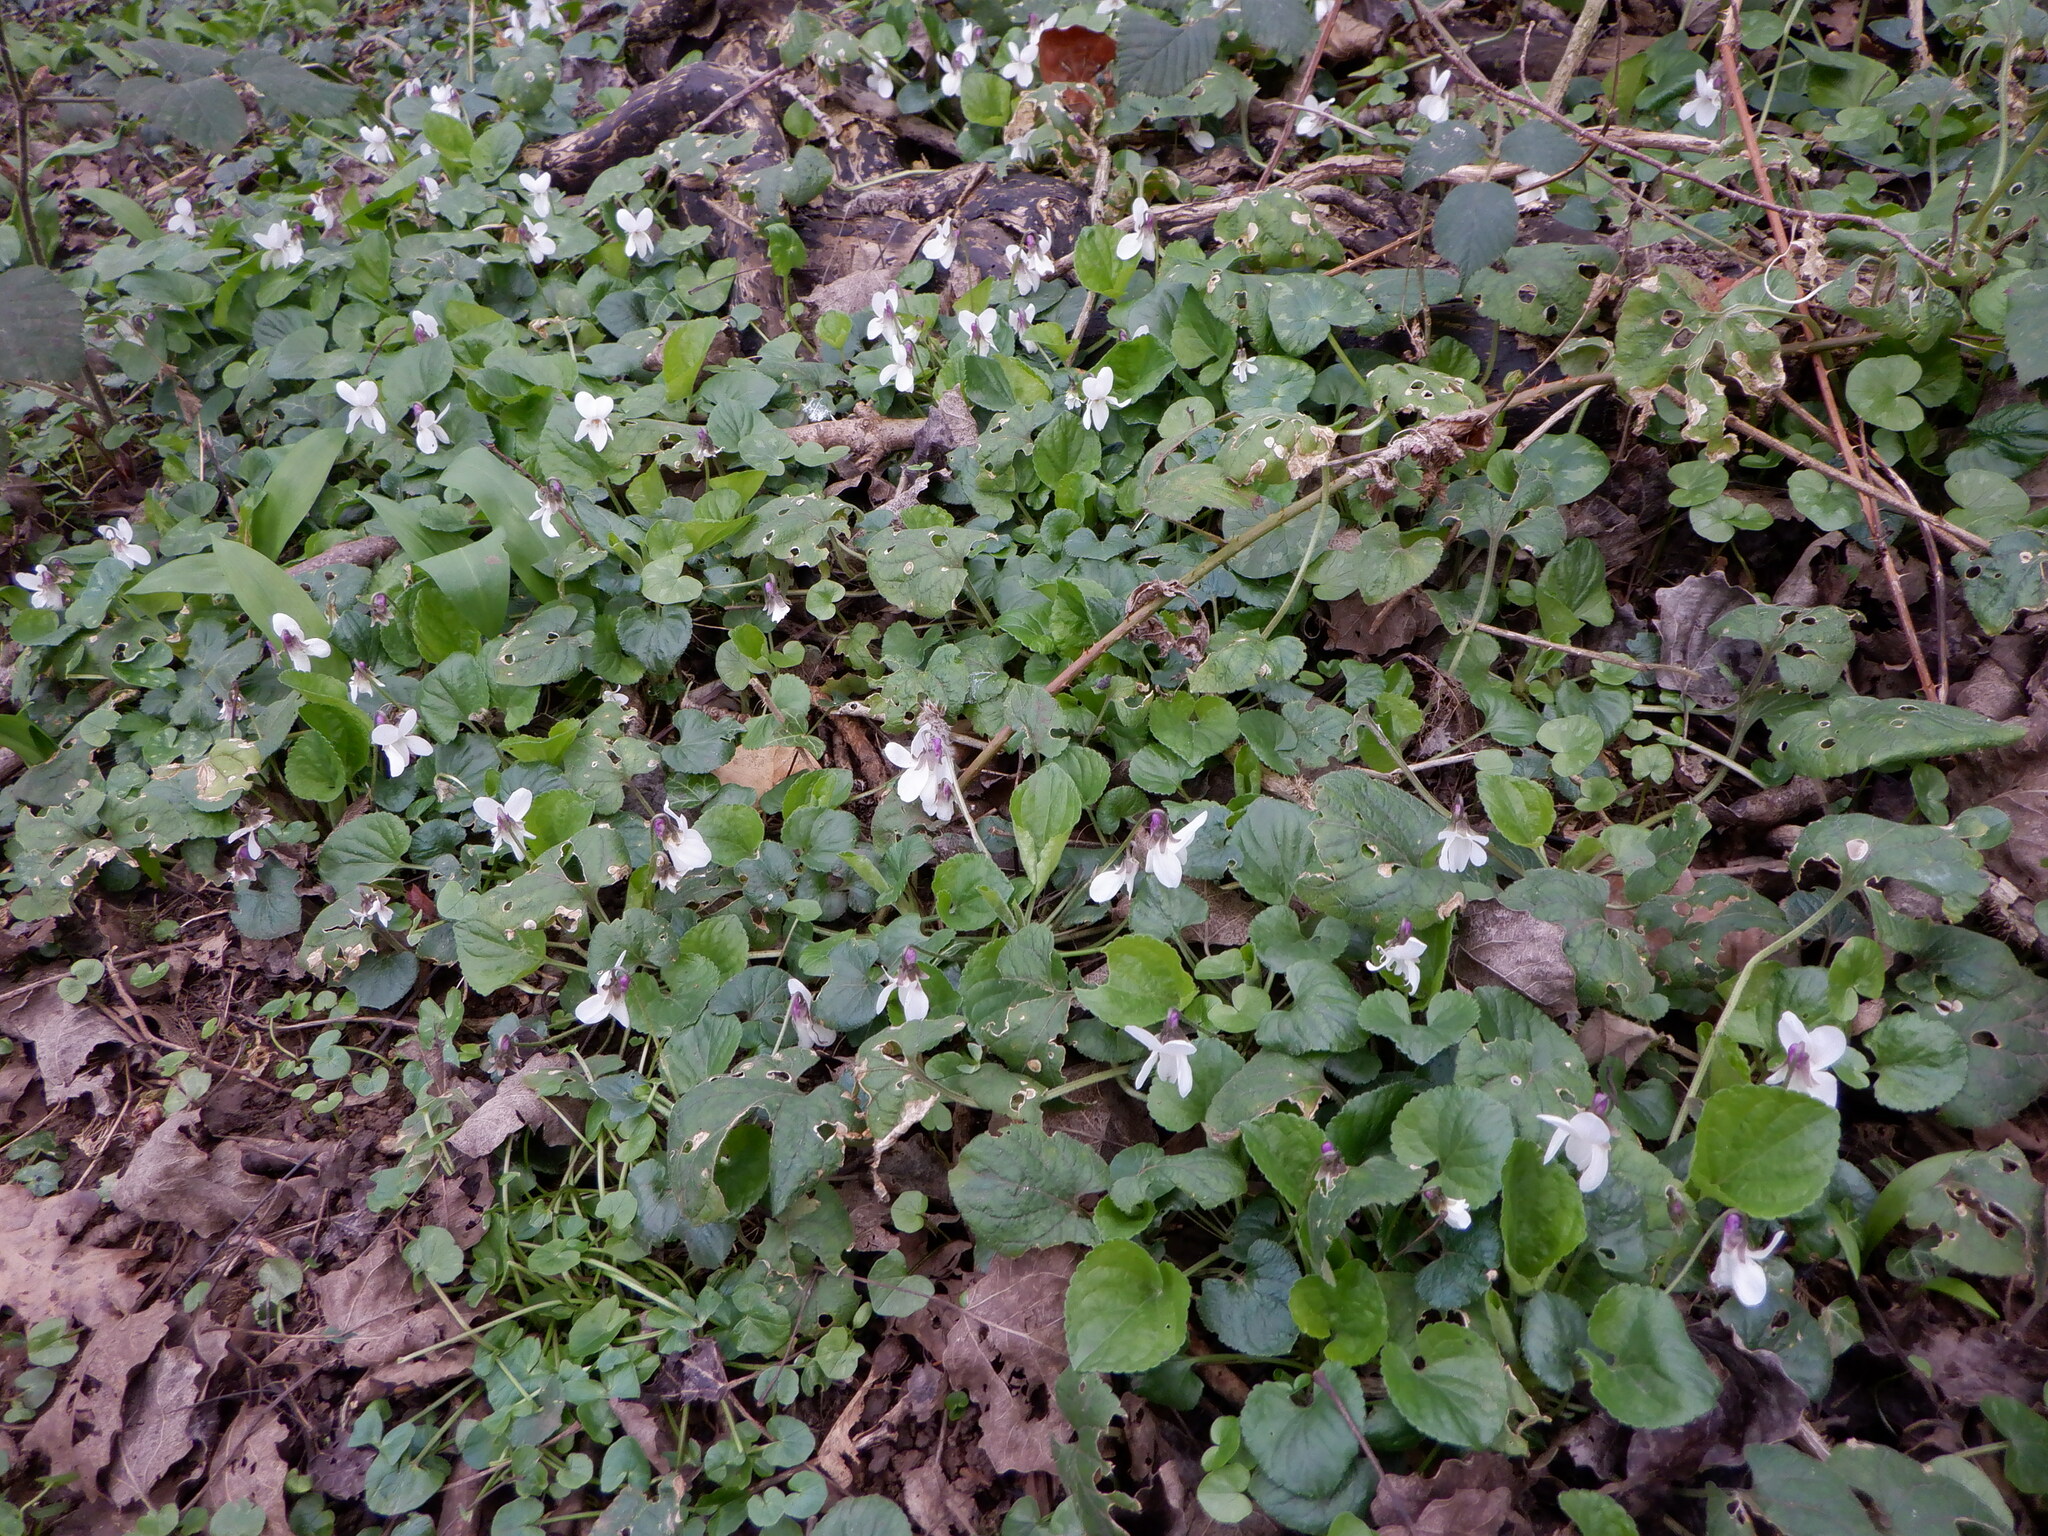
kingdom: Plantae
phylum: Tracheophyta
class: Magnoliopsida
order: Malpighiales
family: Violaceae
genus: Viola
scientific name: Viola odorata
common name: Sweet violet
